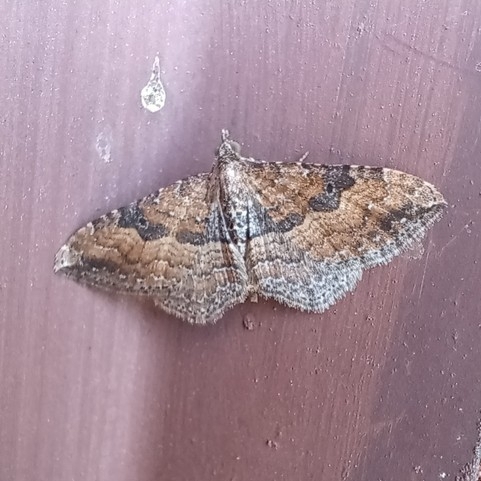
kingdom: Animalia
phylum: Arthropoda
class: Insecta
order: Lepidoptera
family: Geometridae
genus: Orthonama
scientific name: Orthonama obstipata
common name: The gem
